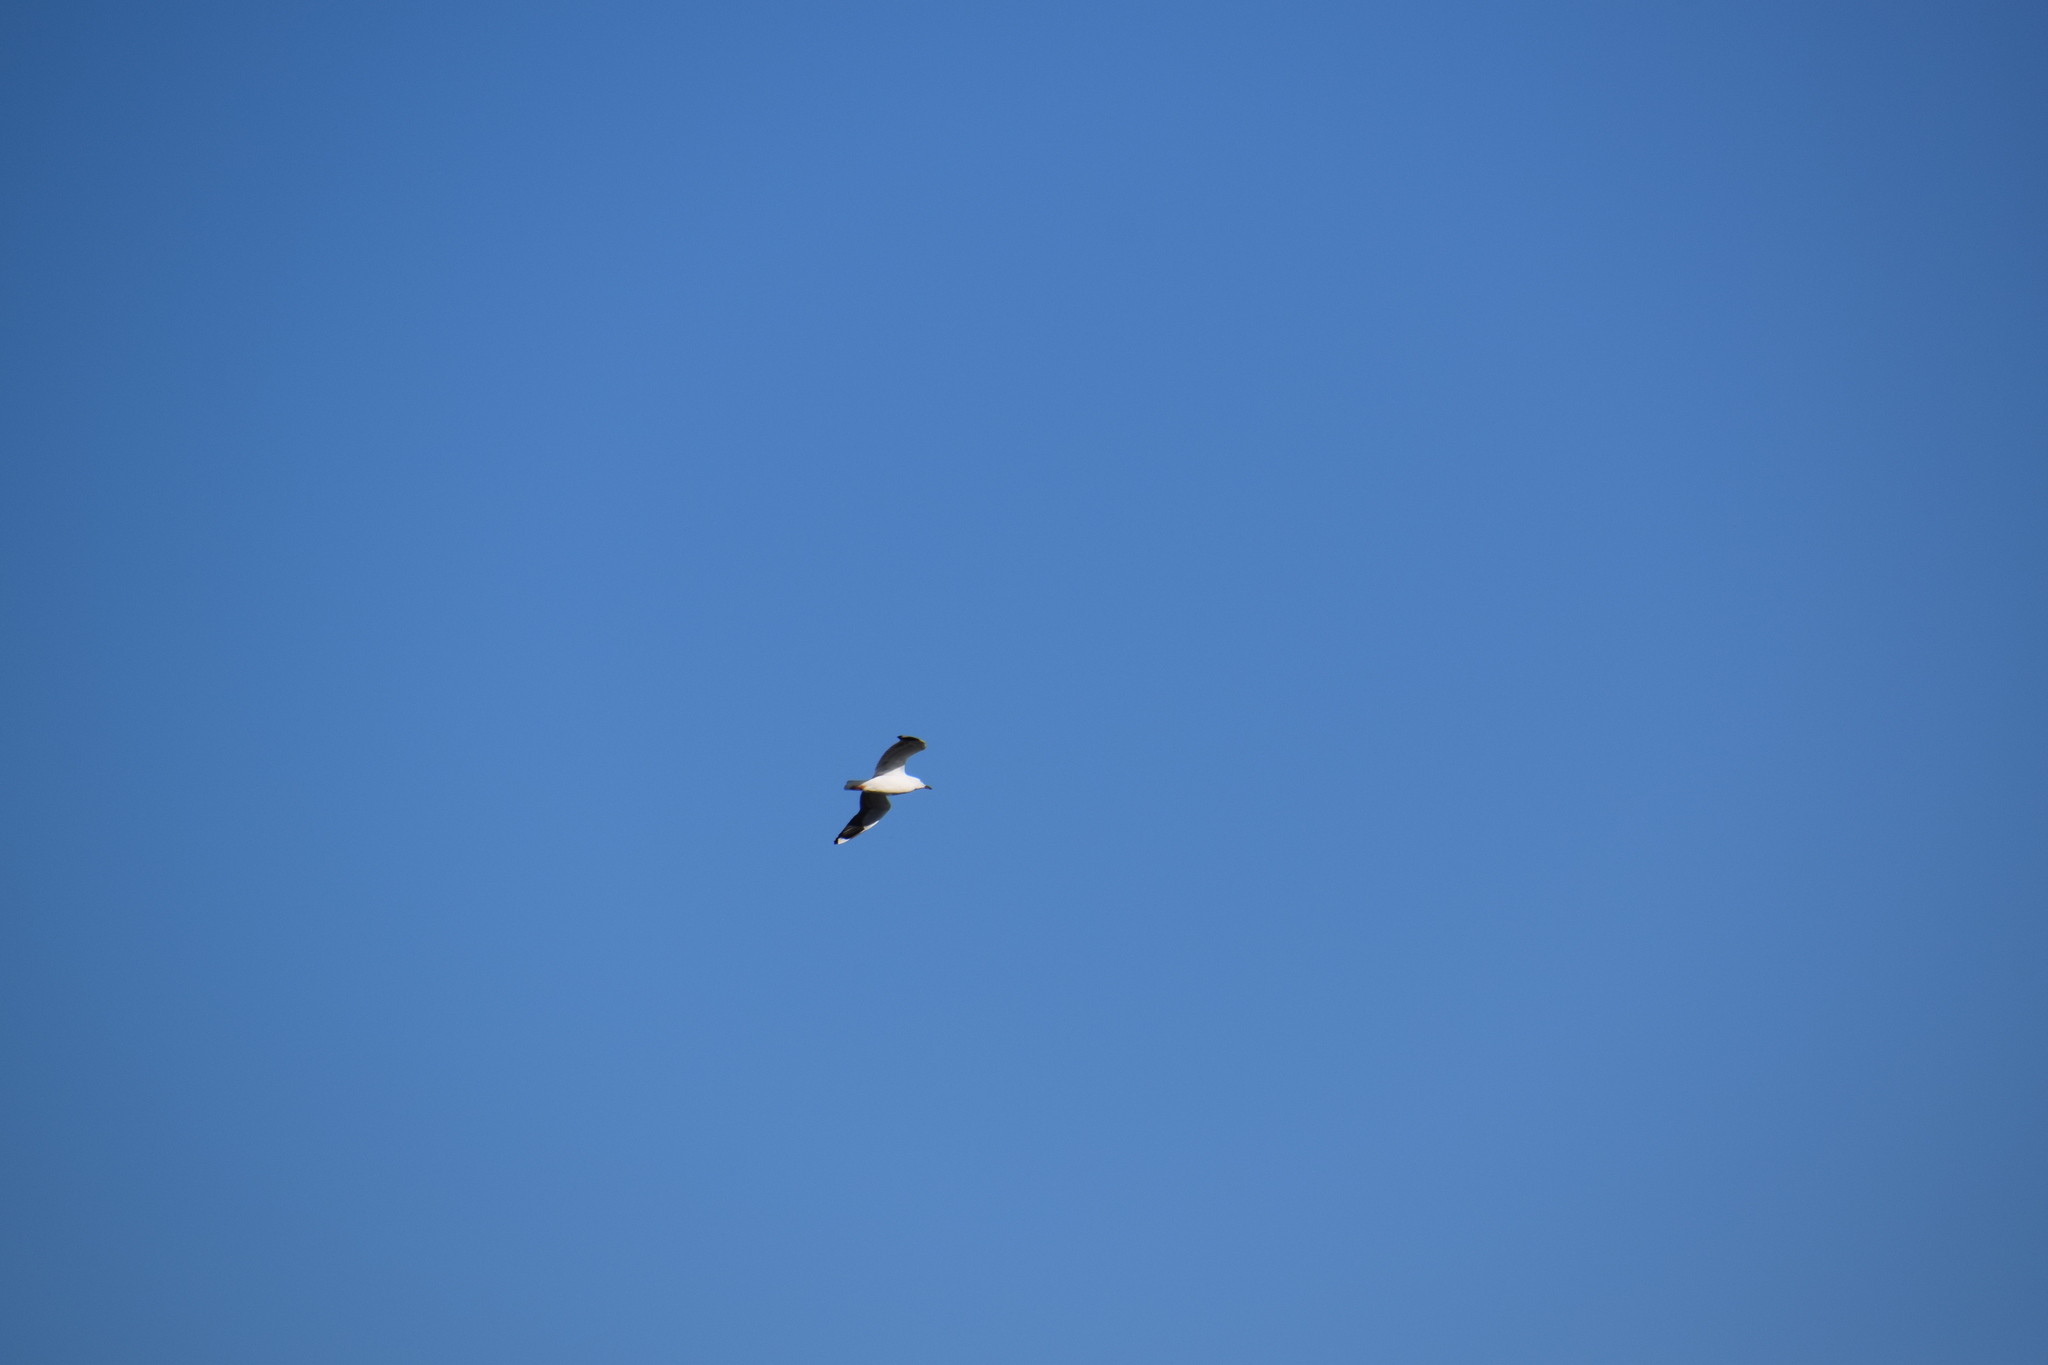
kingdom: Animalia
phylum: Chordata
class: Aves
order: Charadriiformes
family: Laridae
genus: Chroicocephalus
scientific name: Chroicocephalus novaehollandiae
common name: Silver gull
